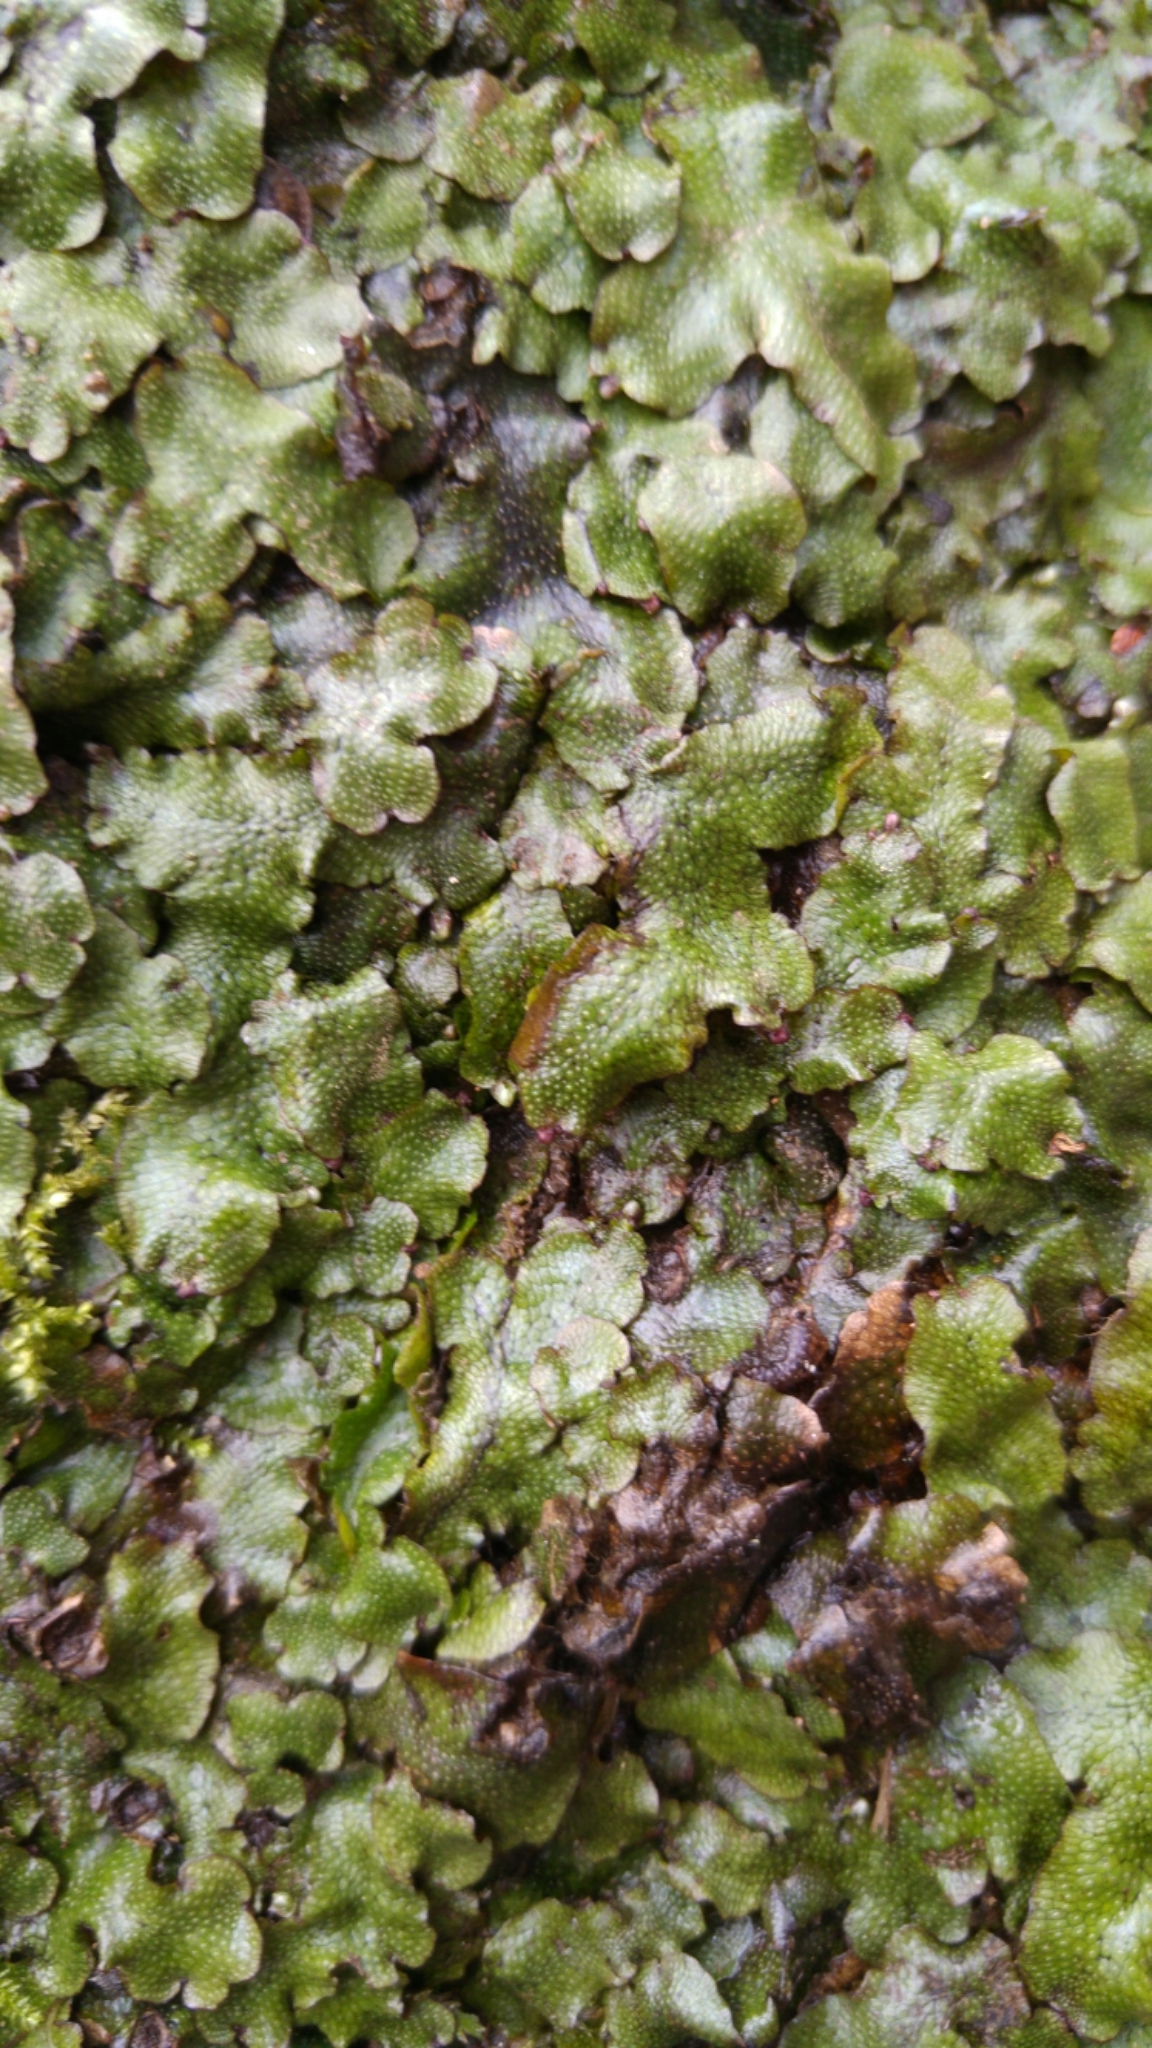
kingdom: Plantae
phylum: Marchantiophyta
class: Marchantiopsida
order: Marchantiales
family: Conocephalaceae
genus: Conocephalum
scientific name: Conocephalum salebrosum
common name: Cat-tongue liverwort
